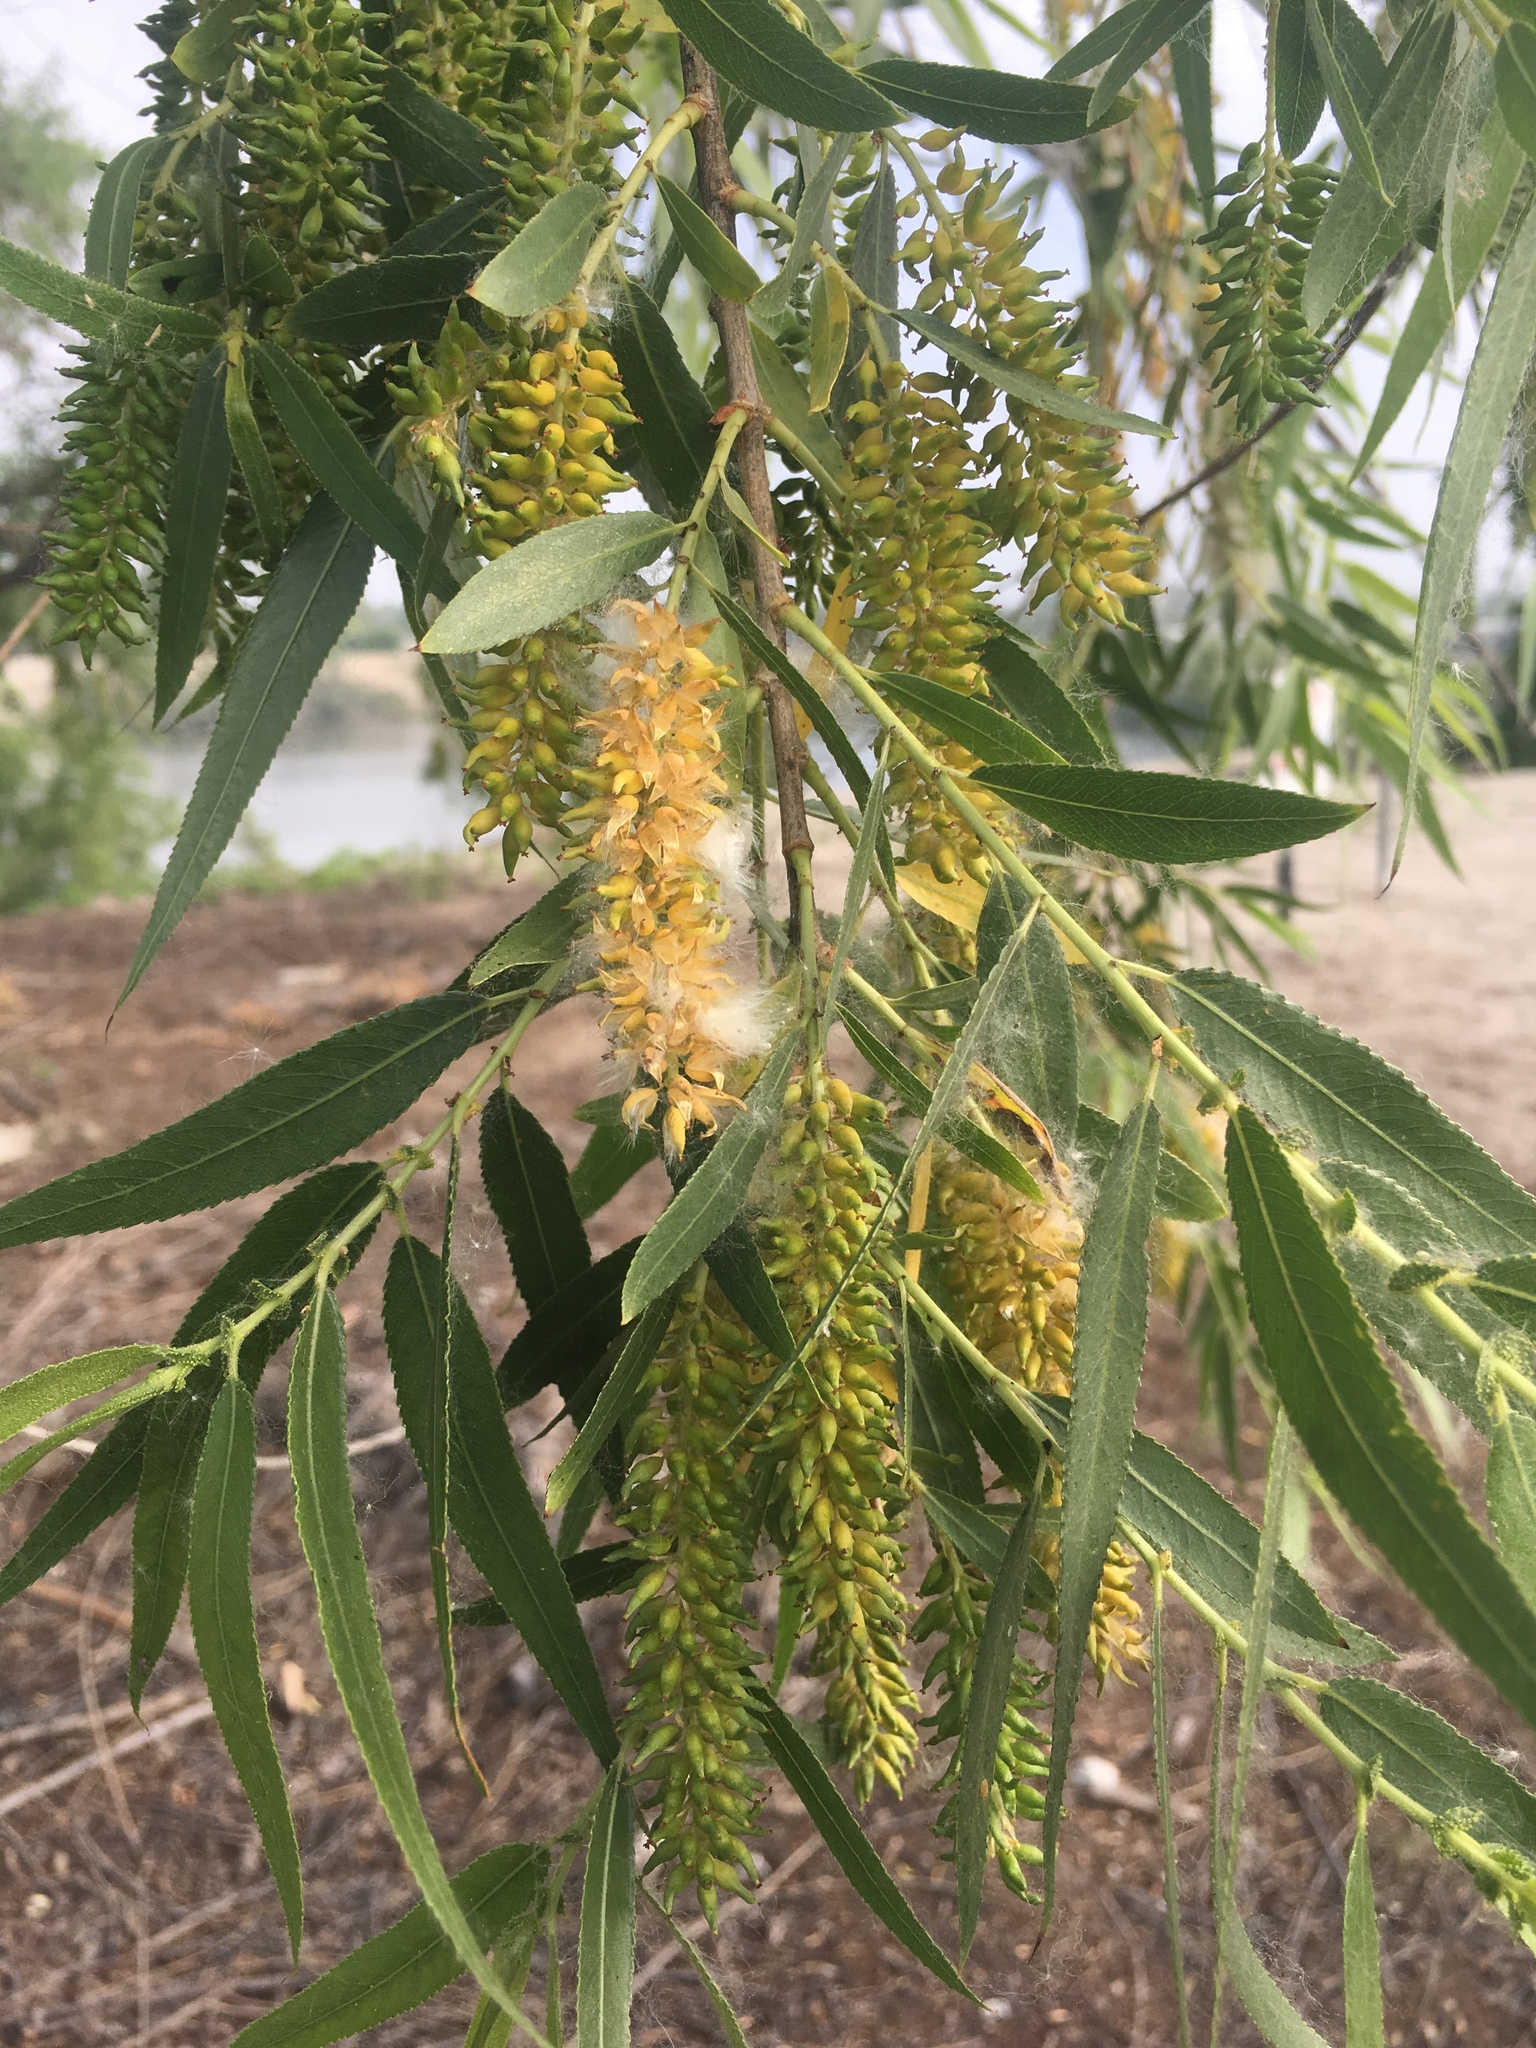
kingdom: Plantae
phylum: Tracheophyta
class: Magnoliopsida
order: Malpighiales
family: Salicaceae
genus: Salix
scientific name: Salix gooddingii
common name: Goodding's willow
